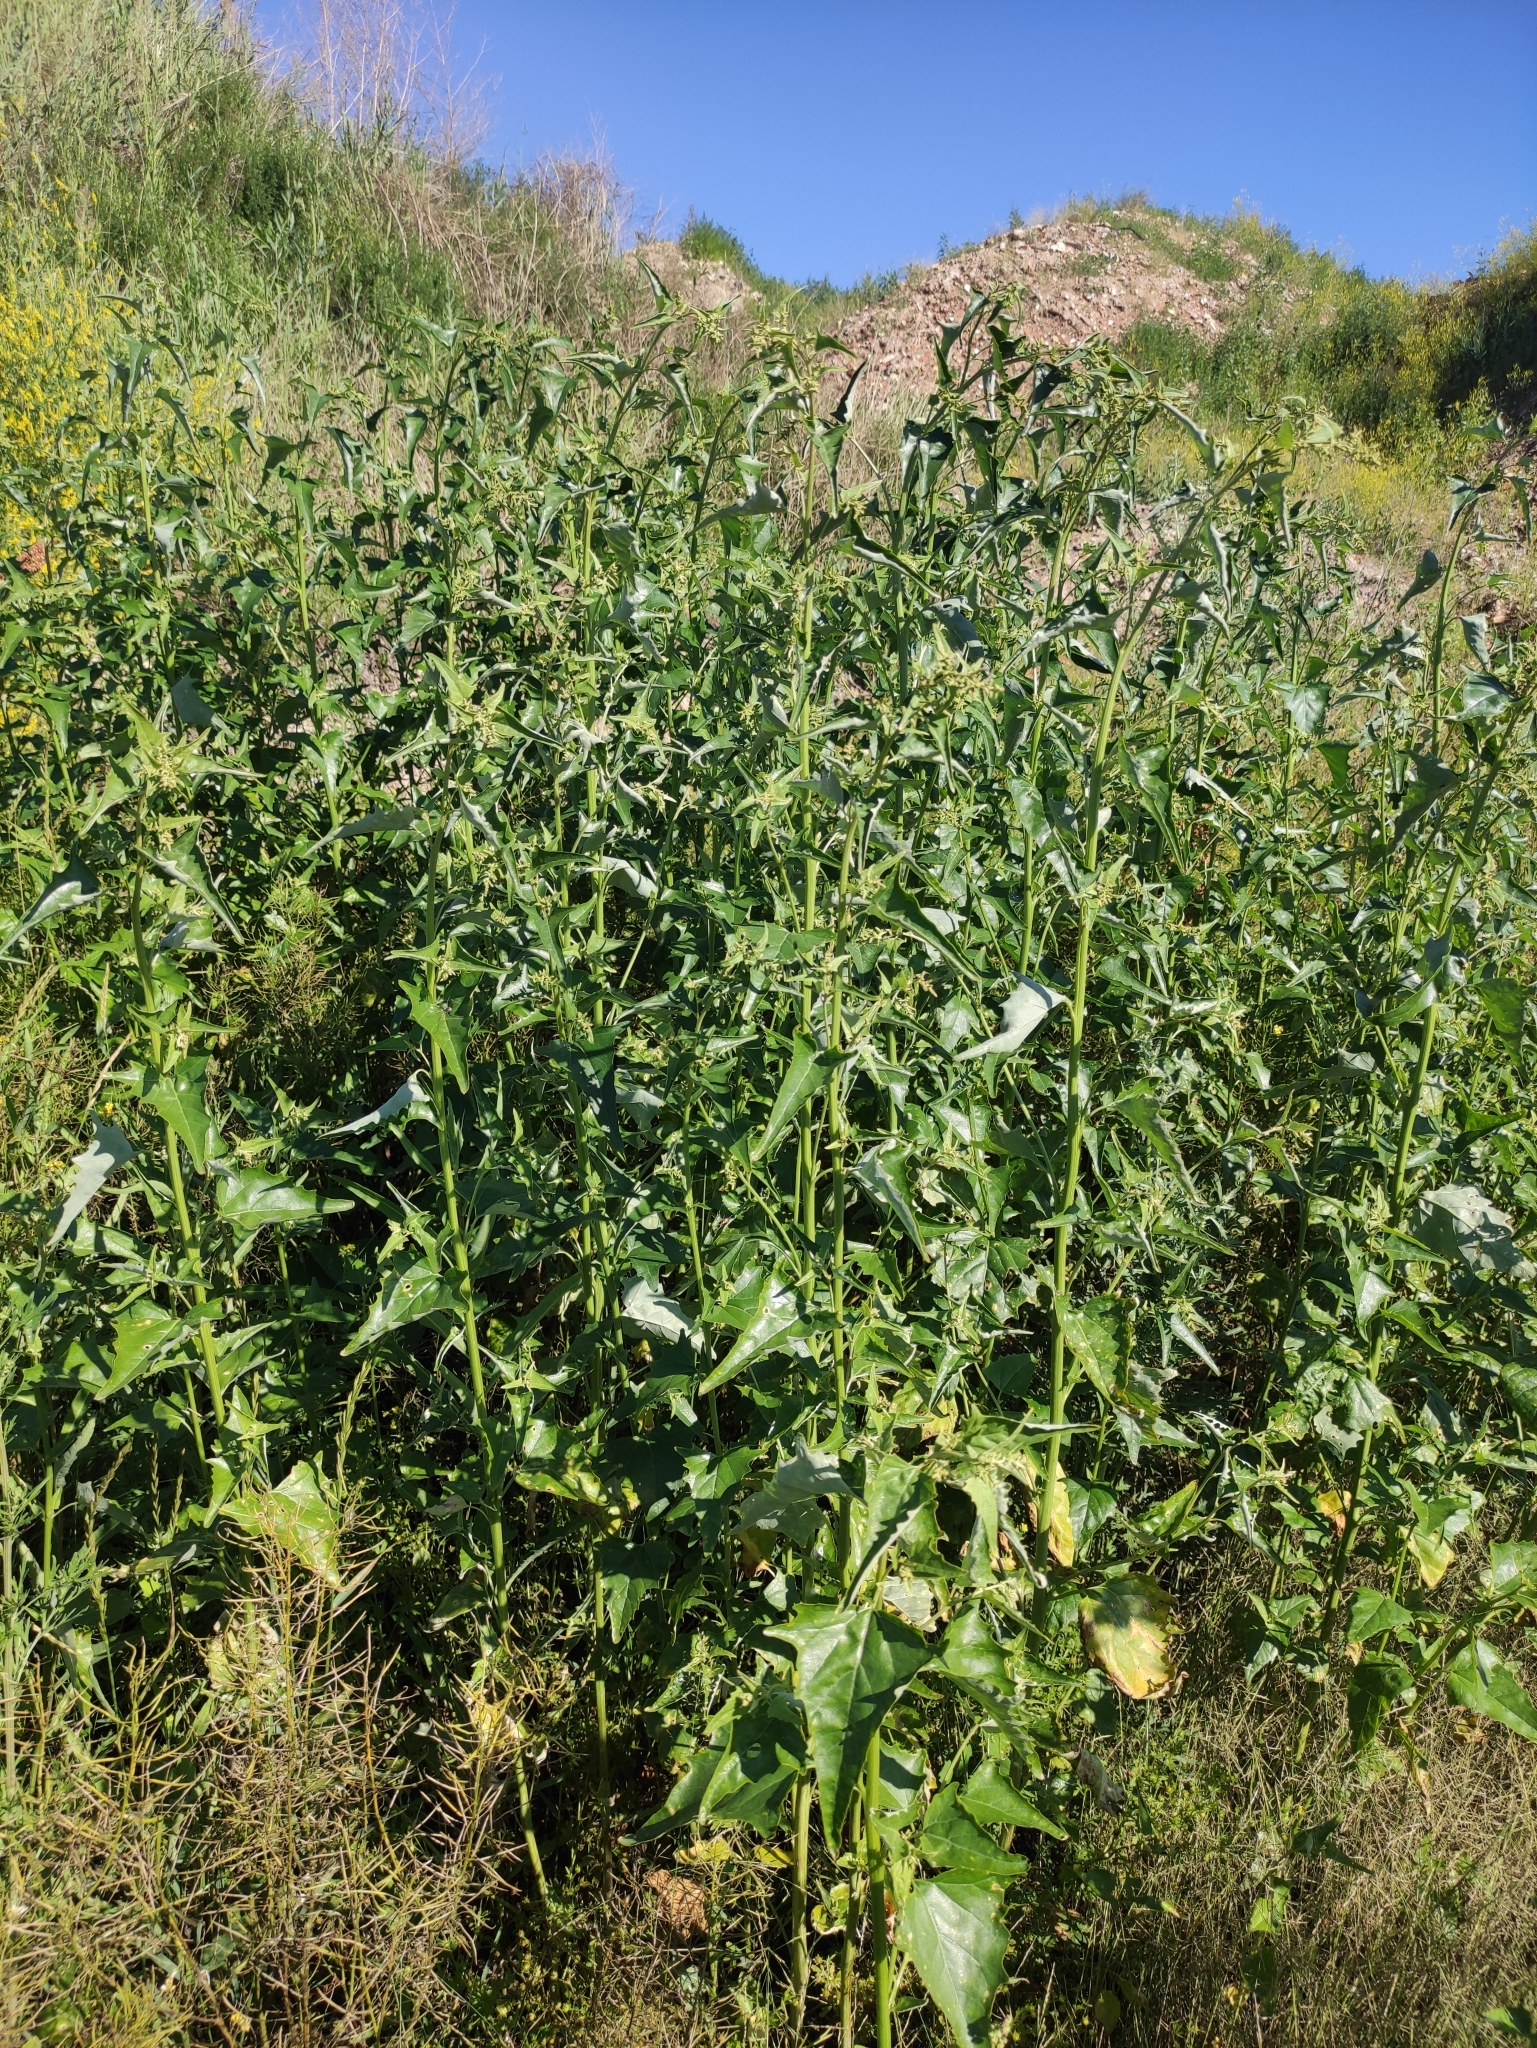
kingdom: Plantae
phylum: Tracheophyta
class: Magnoliopsida
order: Caryophyllales
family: Amaranthaceae
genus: Atriplex
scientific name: Atriplex sagittata
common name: Purple orache
